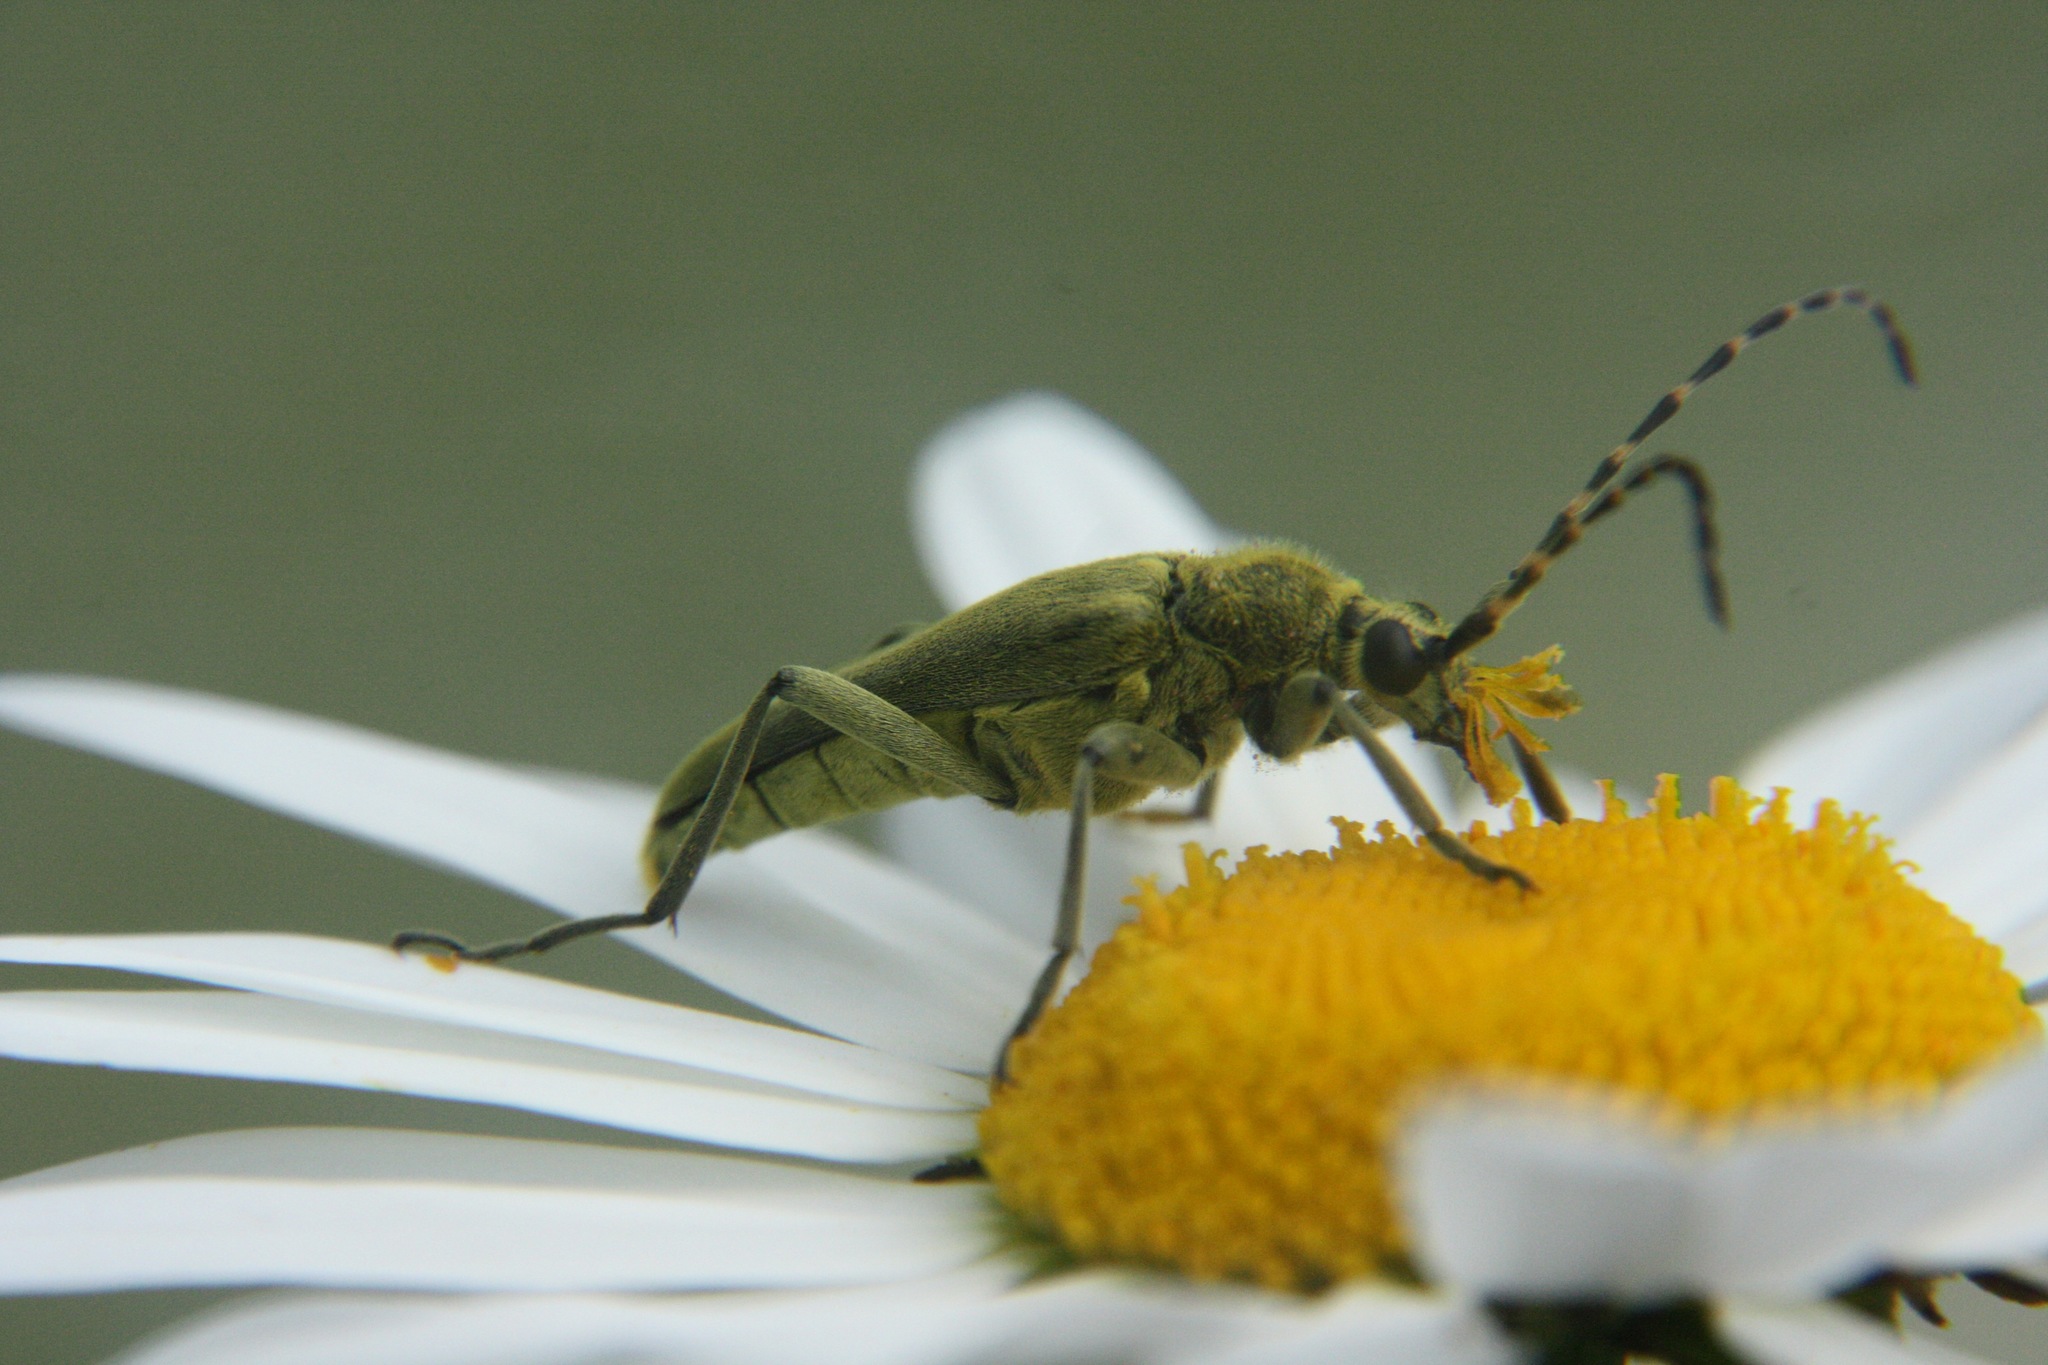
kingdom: Animalia
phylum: Arthropoda
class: Insecta
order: Coleoptera
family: Cerambycidae
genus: Lepturobosca
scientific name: Lepturobosca virens
